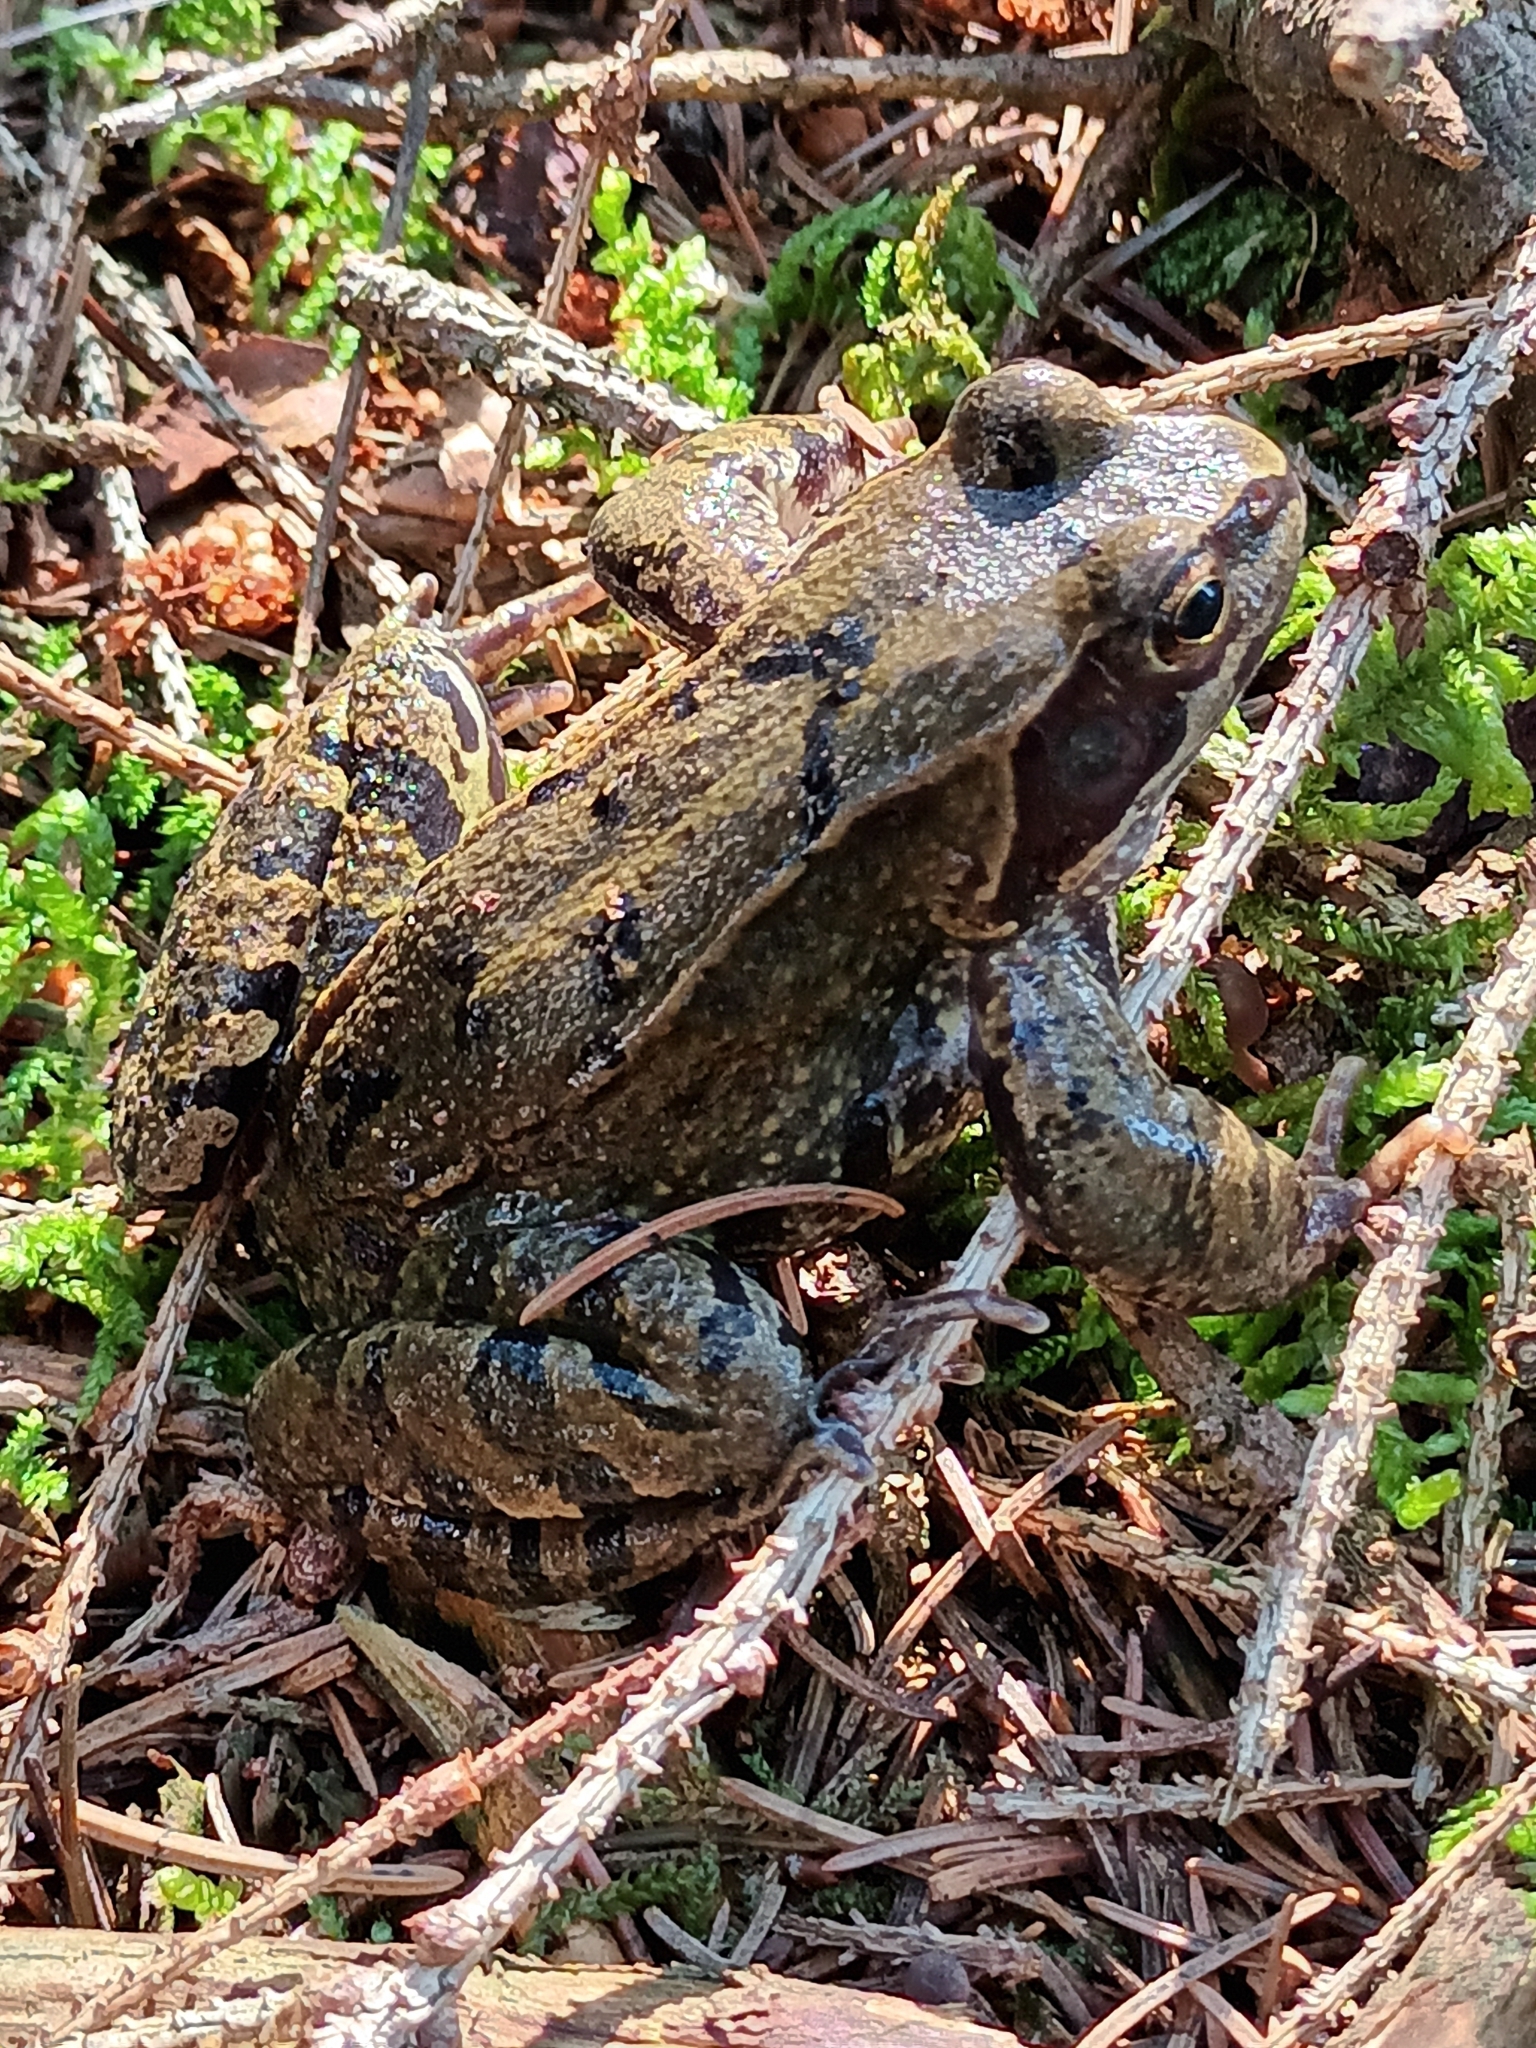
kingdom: Animalia
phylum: Chordata
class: Amphibia
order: Anura
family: Ranidae
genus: Rana
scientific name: Rana temporaria
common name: Common frog
